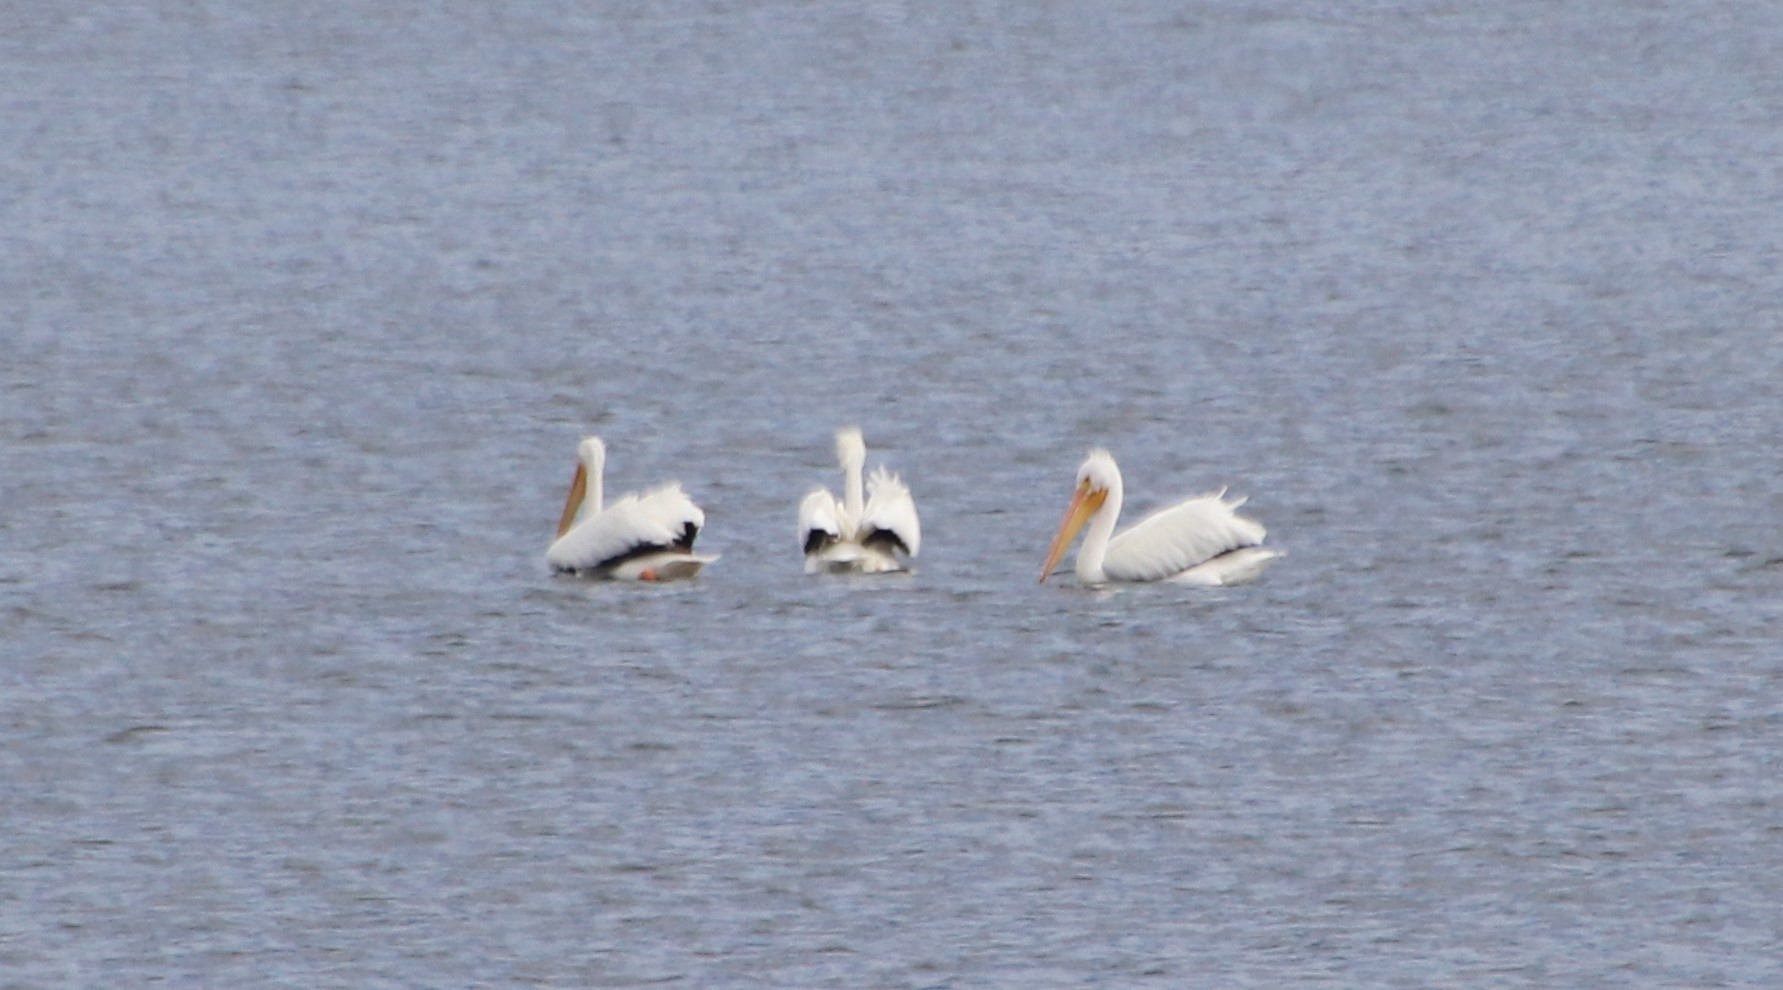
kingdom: Animalia
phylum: Chordata
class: Aves
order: Pelecaniformes
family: Pelecanidae
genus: Pelecanus
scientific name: Pelecanus erythrorhynchos
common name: American white pelican
